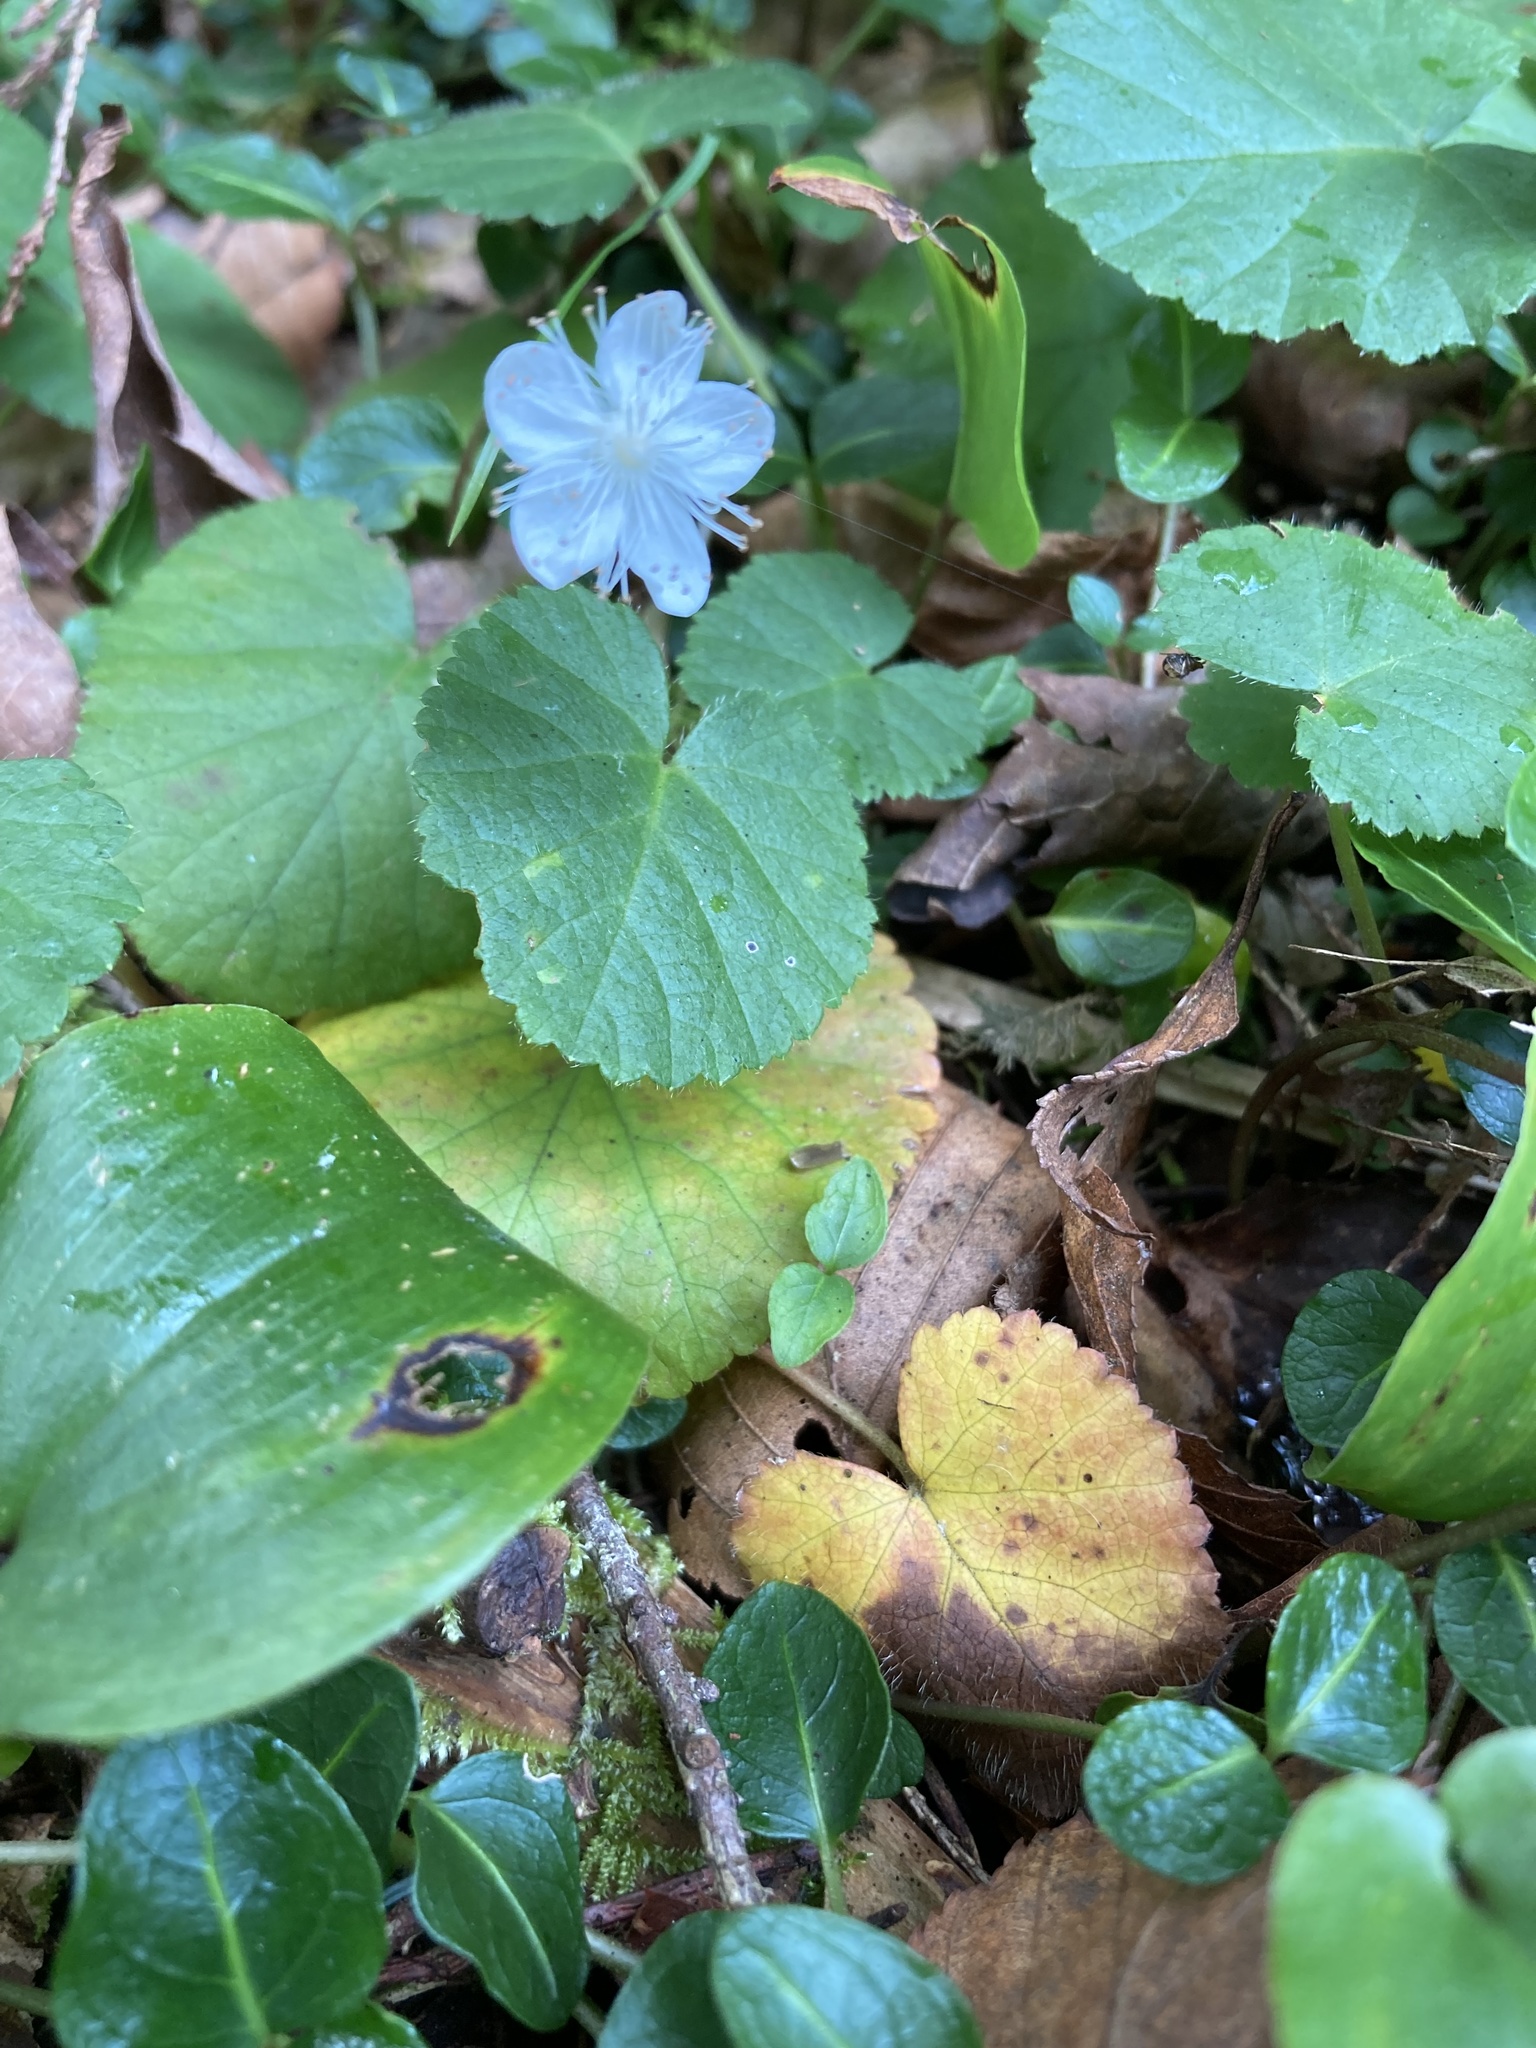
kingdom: Plantae
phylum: Tracheophyta
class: Magnoliopsida
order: Rosales
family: Rosaceae
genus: Dalibarda
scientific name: Dalibarda repens
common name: Dewdrop
